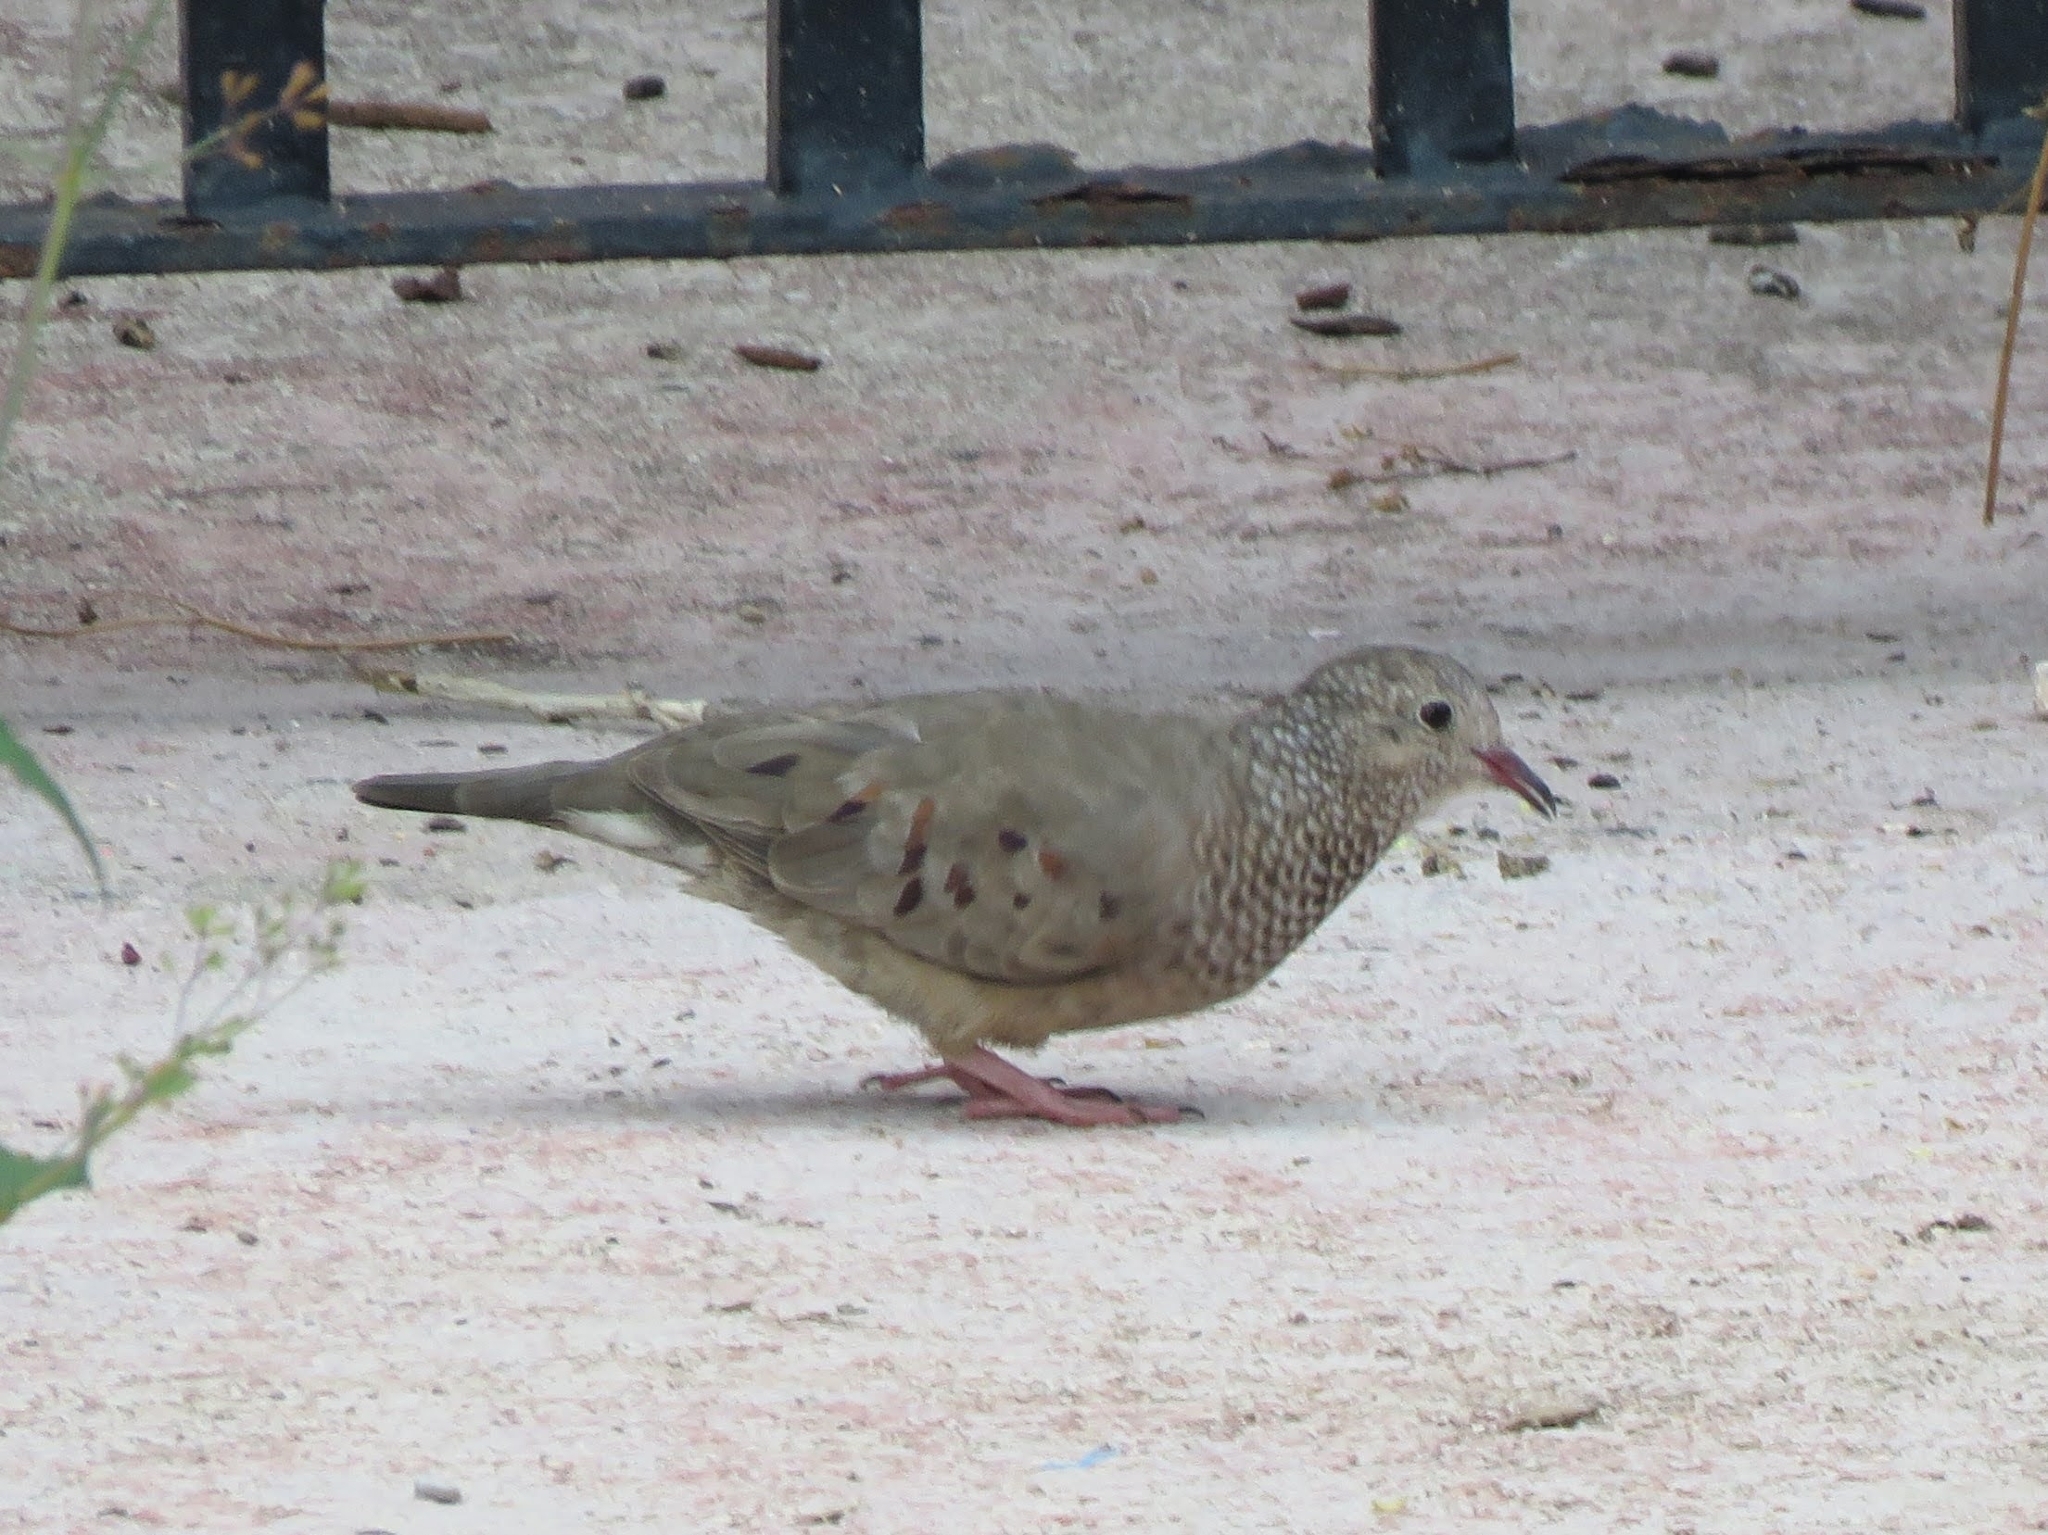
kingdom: Animalia
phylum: Chordata
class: Aves
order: Columbiformes
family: Columbidae
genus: Columbina
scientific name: Columbina passerina
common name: Common ground-dove
